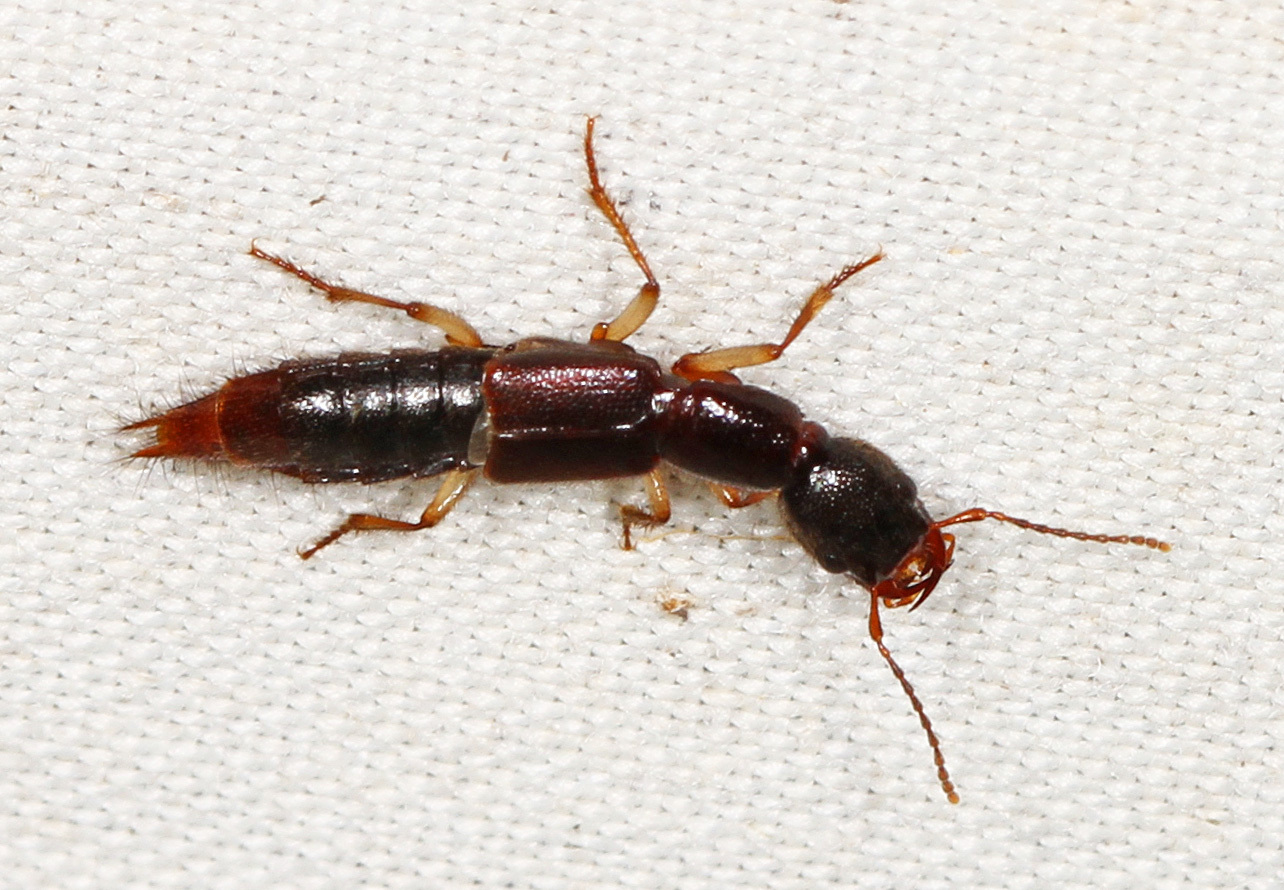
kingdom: Animalia
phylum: Arthropoda
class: Insecta
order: Coleoptera
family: Staphylinidae
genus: Homaeotarsus
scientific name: Homaeotarsus bicolor
